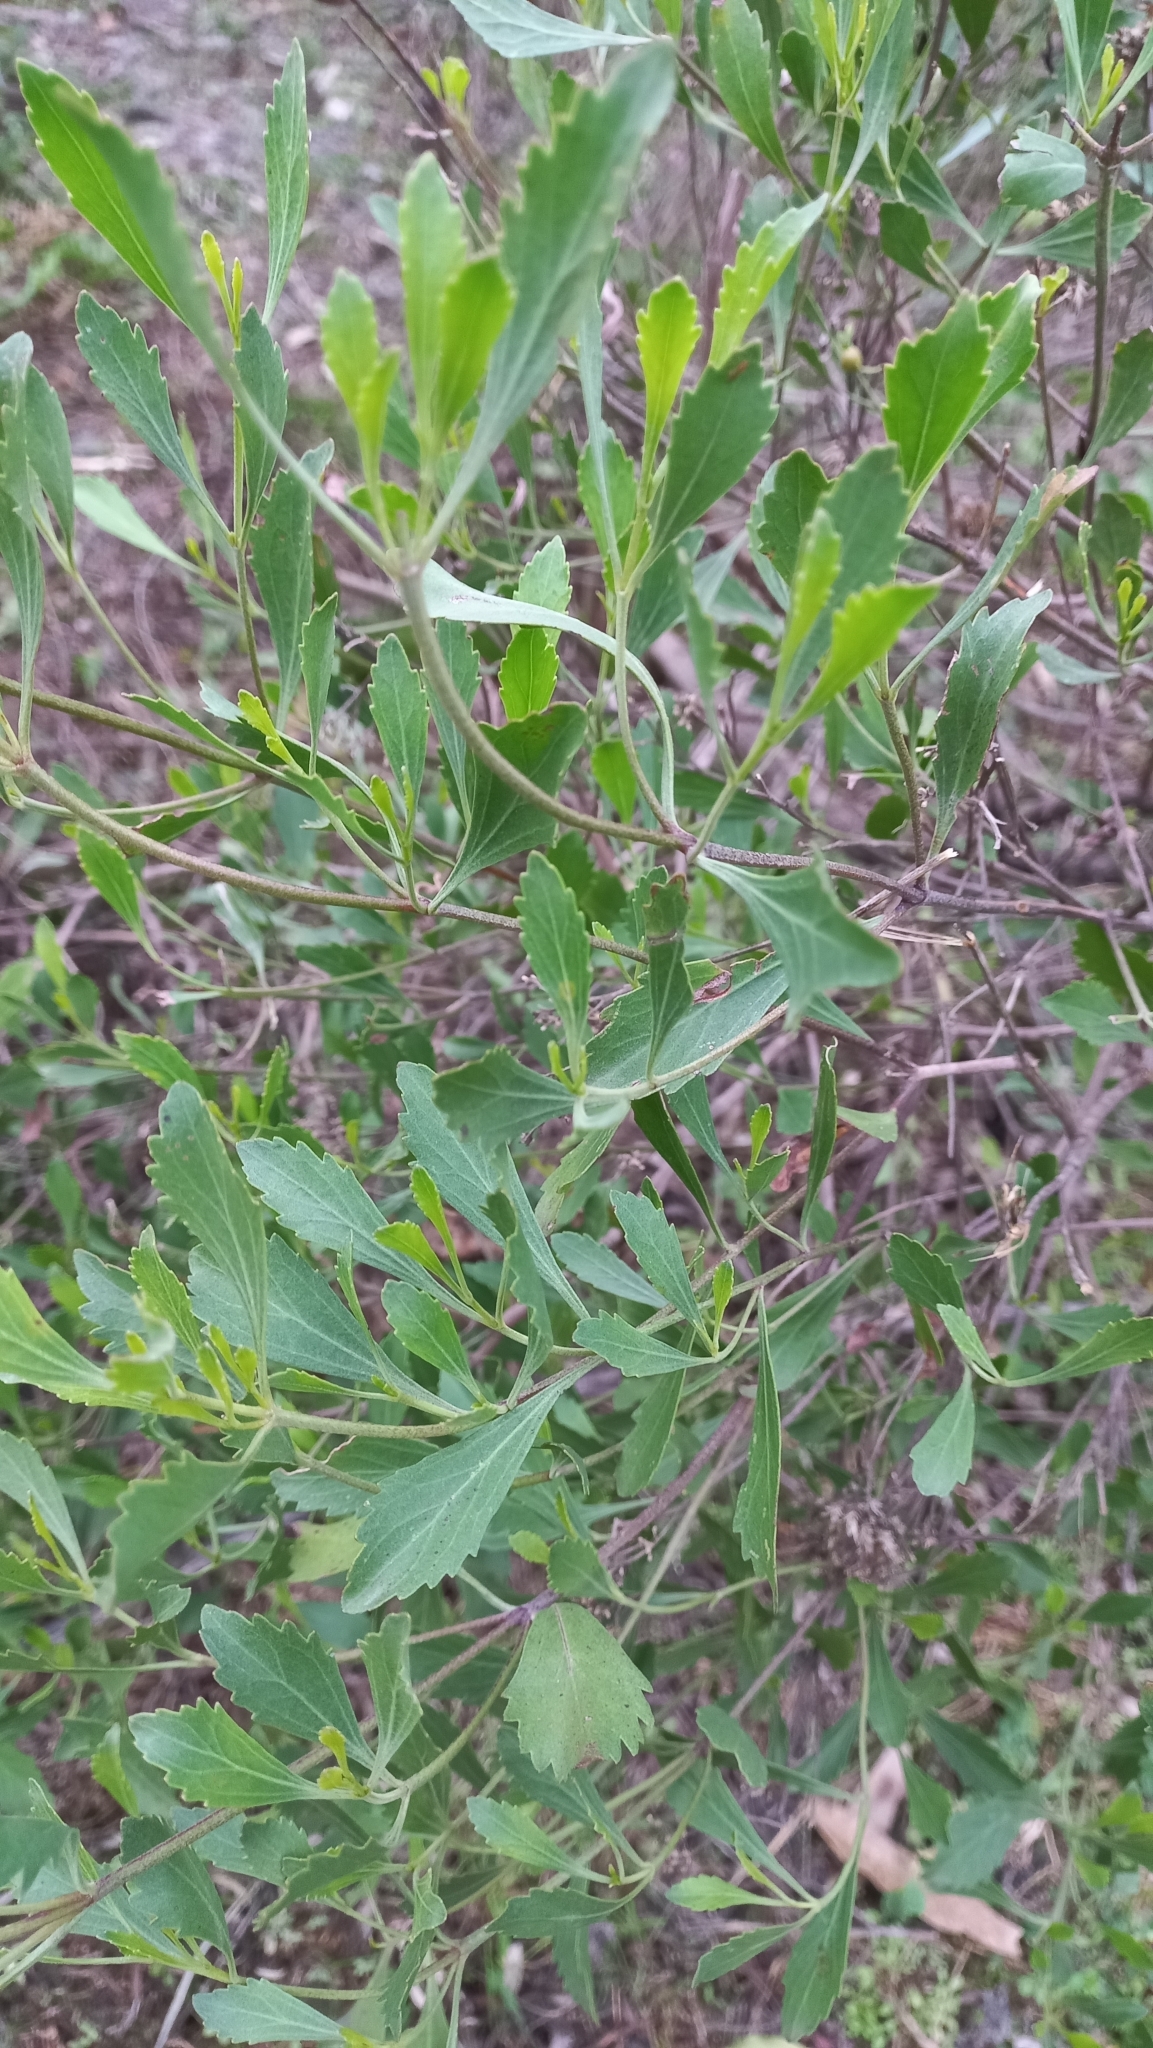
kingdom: Plantae
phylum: Tracheophyta
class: Magnoliopsida
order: Asterales
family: Asteraceae
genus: Symphyopappus
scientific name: Symphyopappus casarettoi
